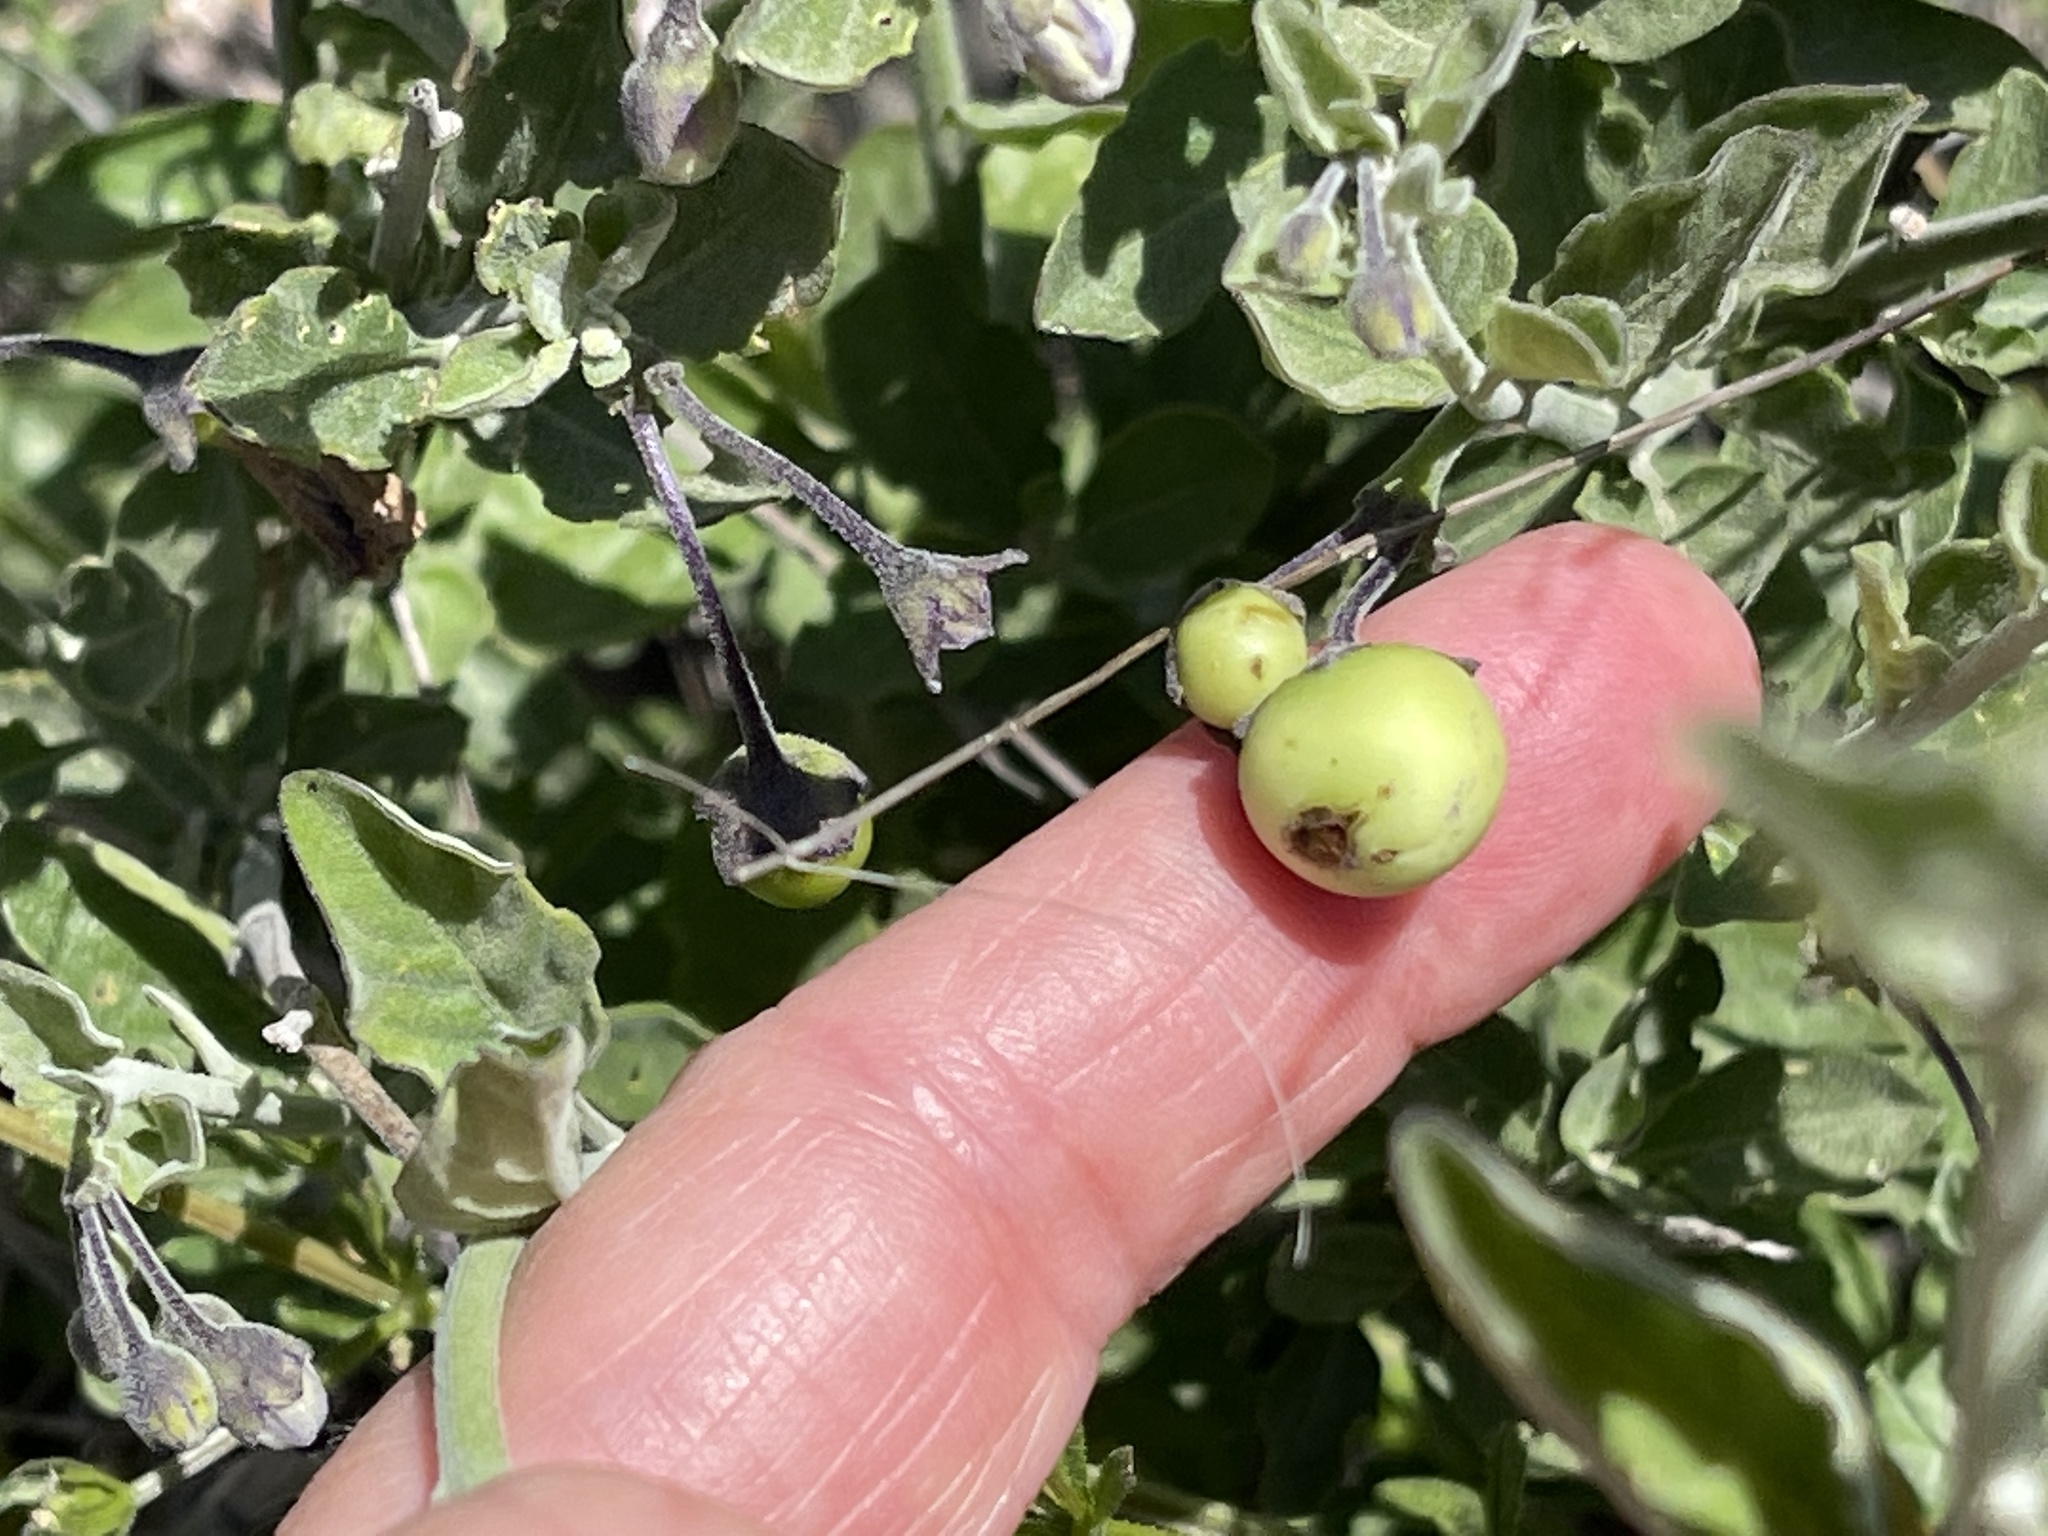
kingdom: Plantae
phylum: Tracheophyta
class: Magnoliopsida
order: Solanales
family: Solanaceae
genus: Solanum
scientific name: Solanum umbelliferum
